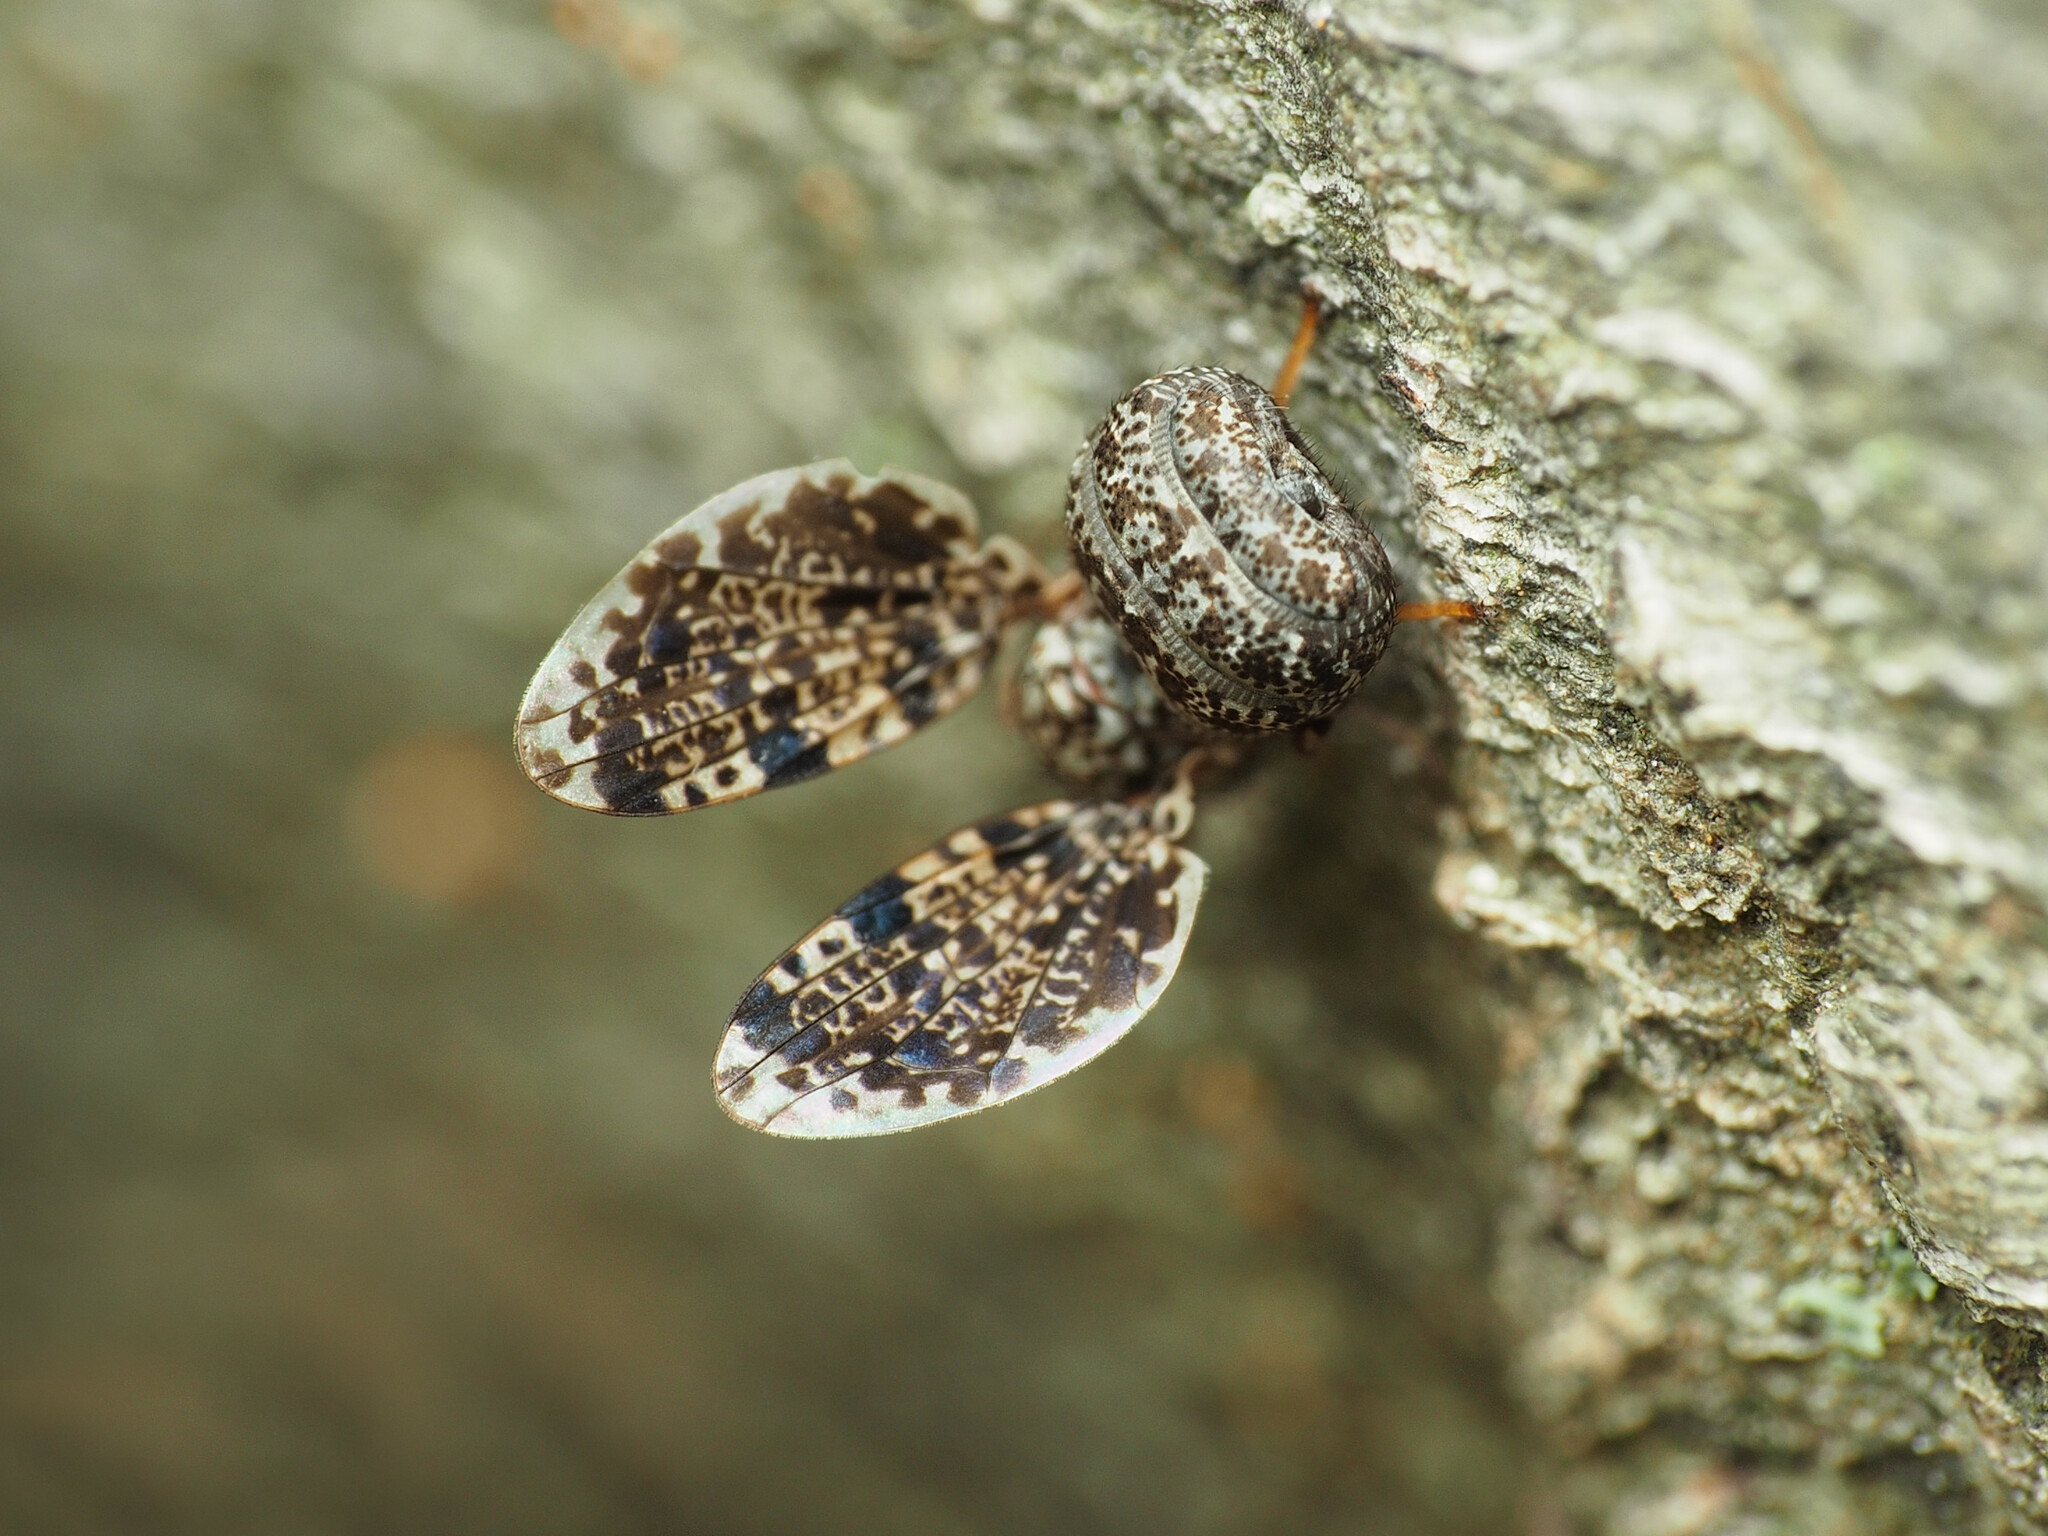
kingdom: Animalia
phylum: Arthropoda
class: Insecta
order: Diptera
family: Ulidiidae
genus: Callopistromyia
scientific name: Callopistromyia annulipes
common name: Peacock fly
